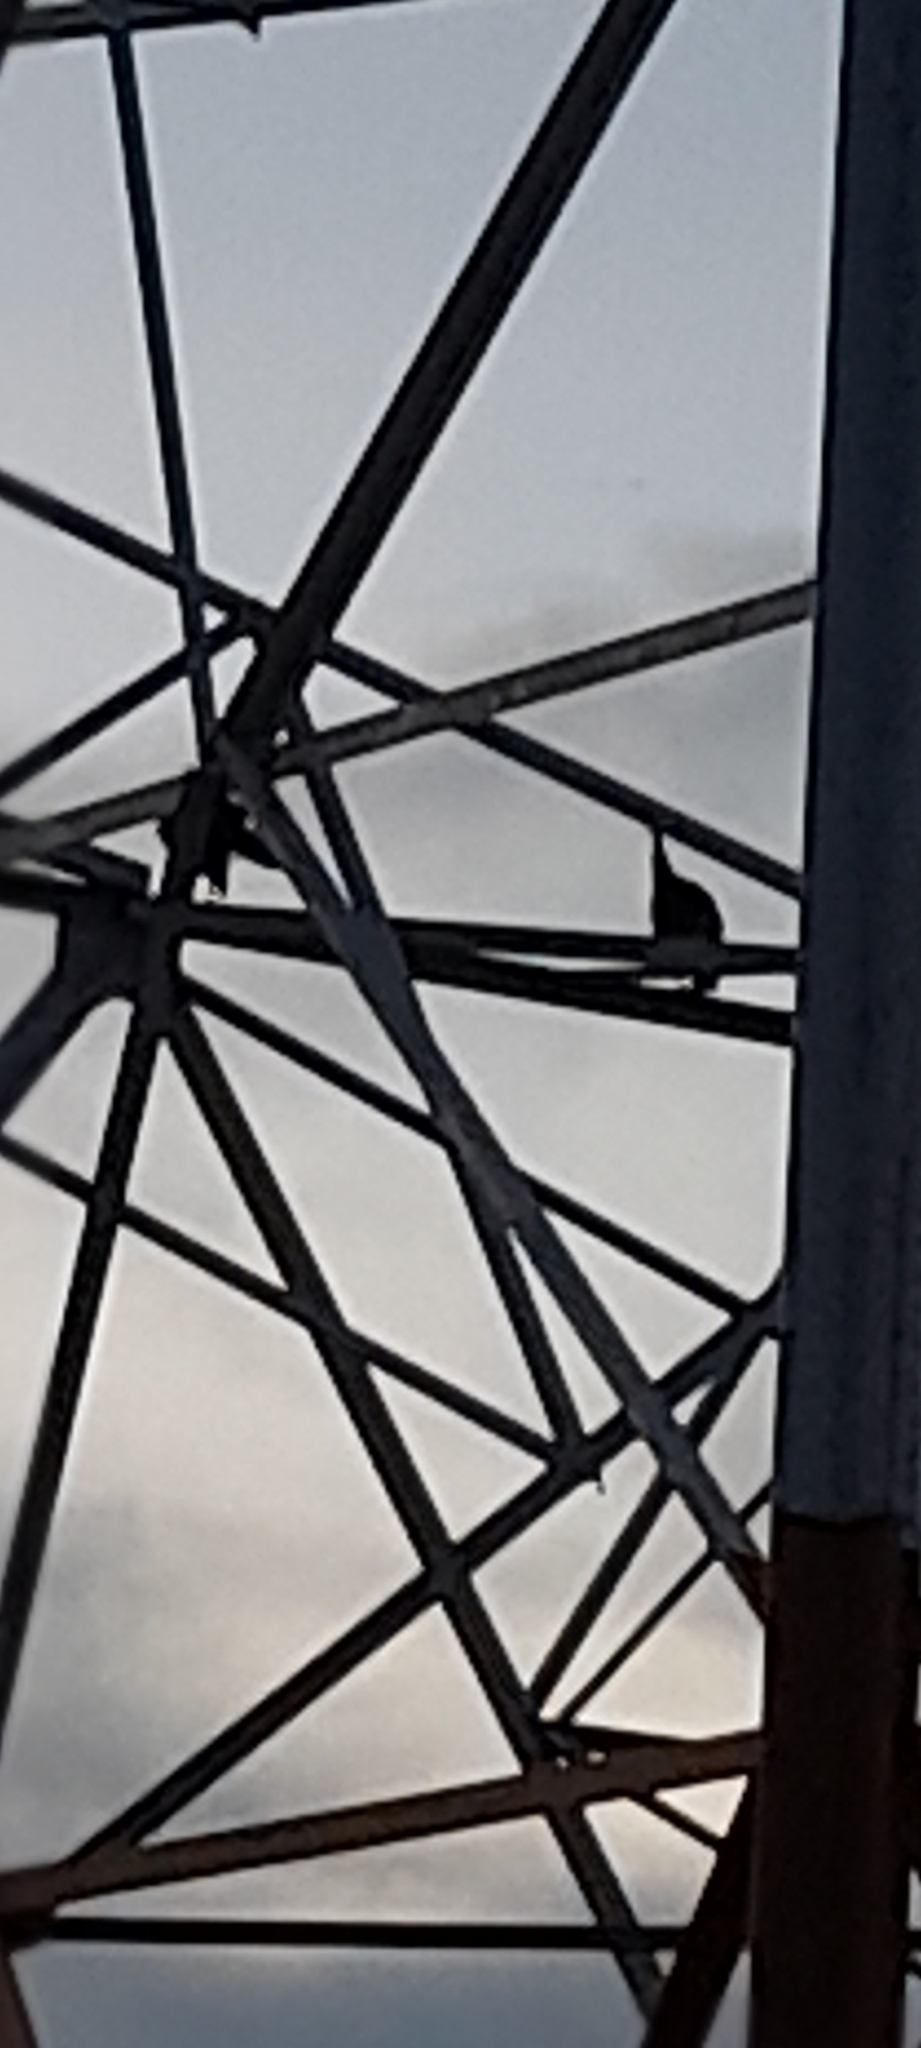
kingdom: Animalia
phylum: Chordata
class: Aves
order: Galliformes
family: Phasianidae
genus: Pavo
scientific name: Pavo cristatus
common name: Indian peafowl
